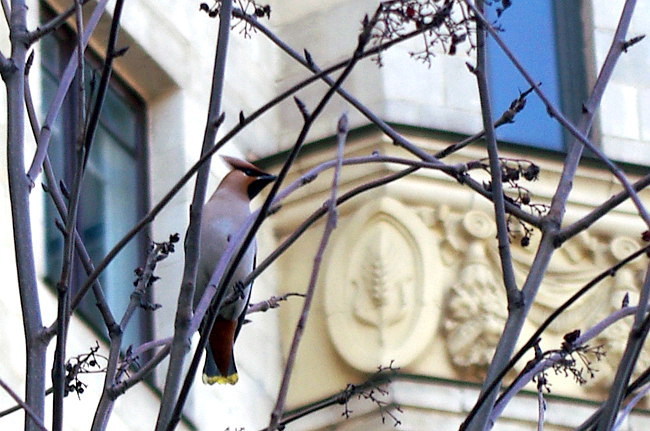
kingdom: Animalia
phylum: Chordata
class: Aves
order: Passeriformes
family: Bombycillidae
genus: Bombycilla
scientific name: Bombycilla garrulus
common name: Bohemian waxwing
